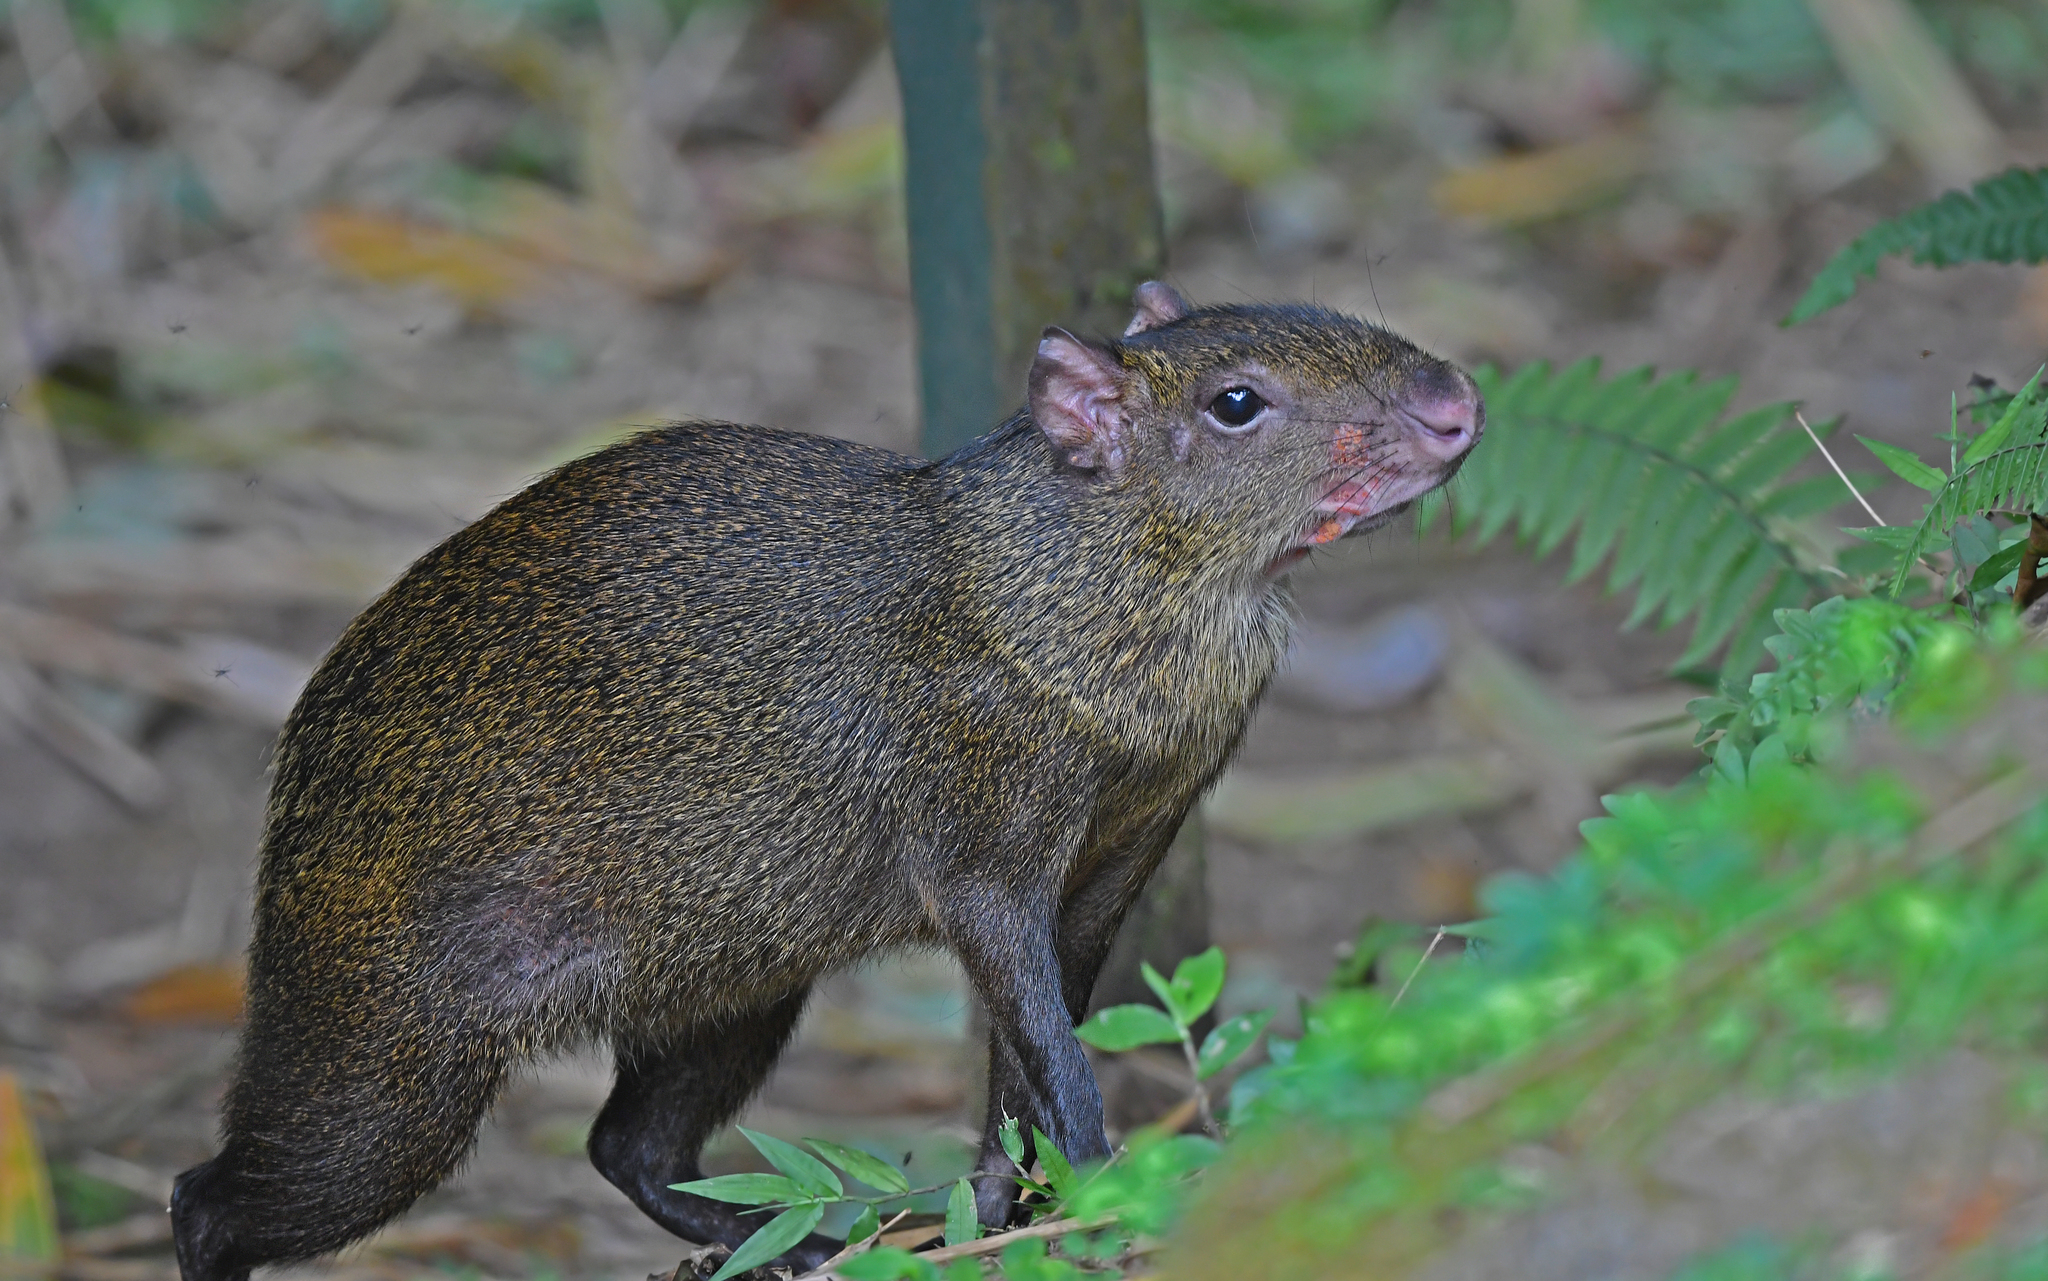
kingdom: Animalia
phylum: Chordata
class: Mammalia
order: Rodentia
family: Dasyproctidae
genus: Dasyprocta
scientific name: Dasyprocta variegata
